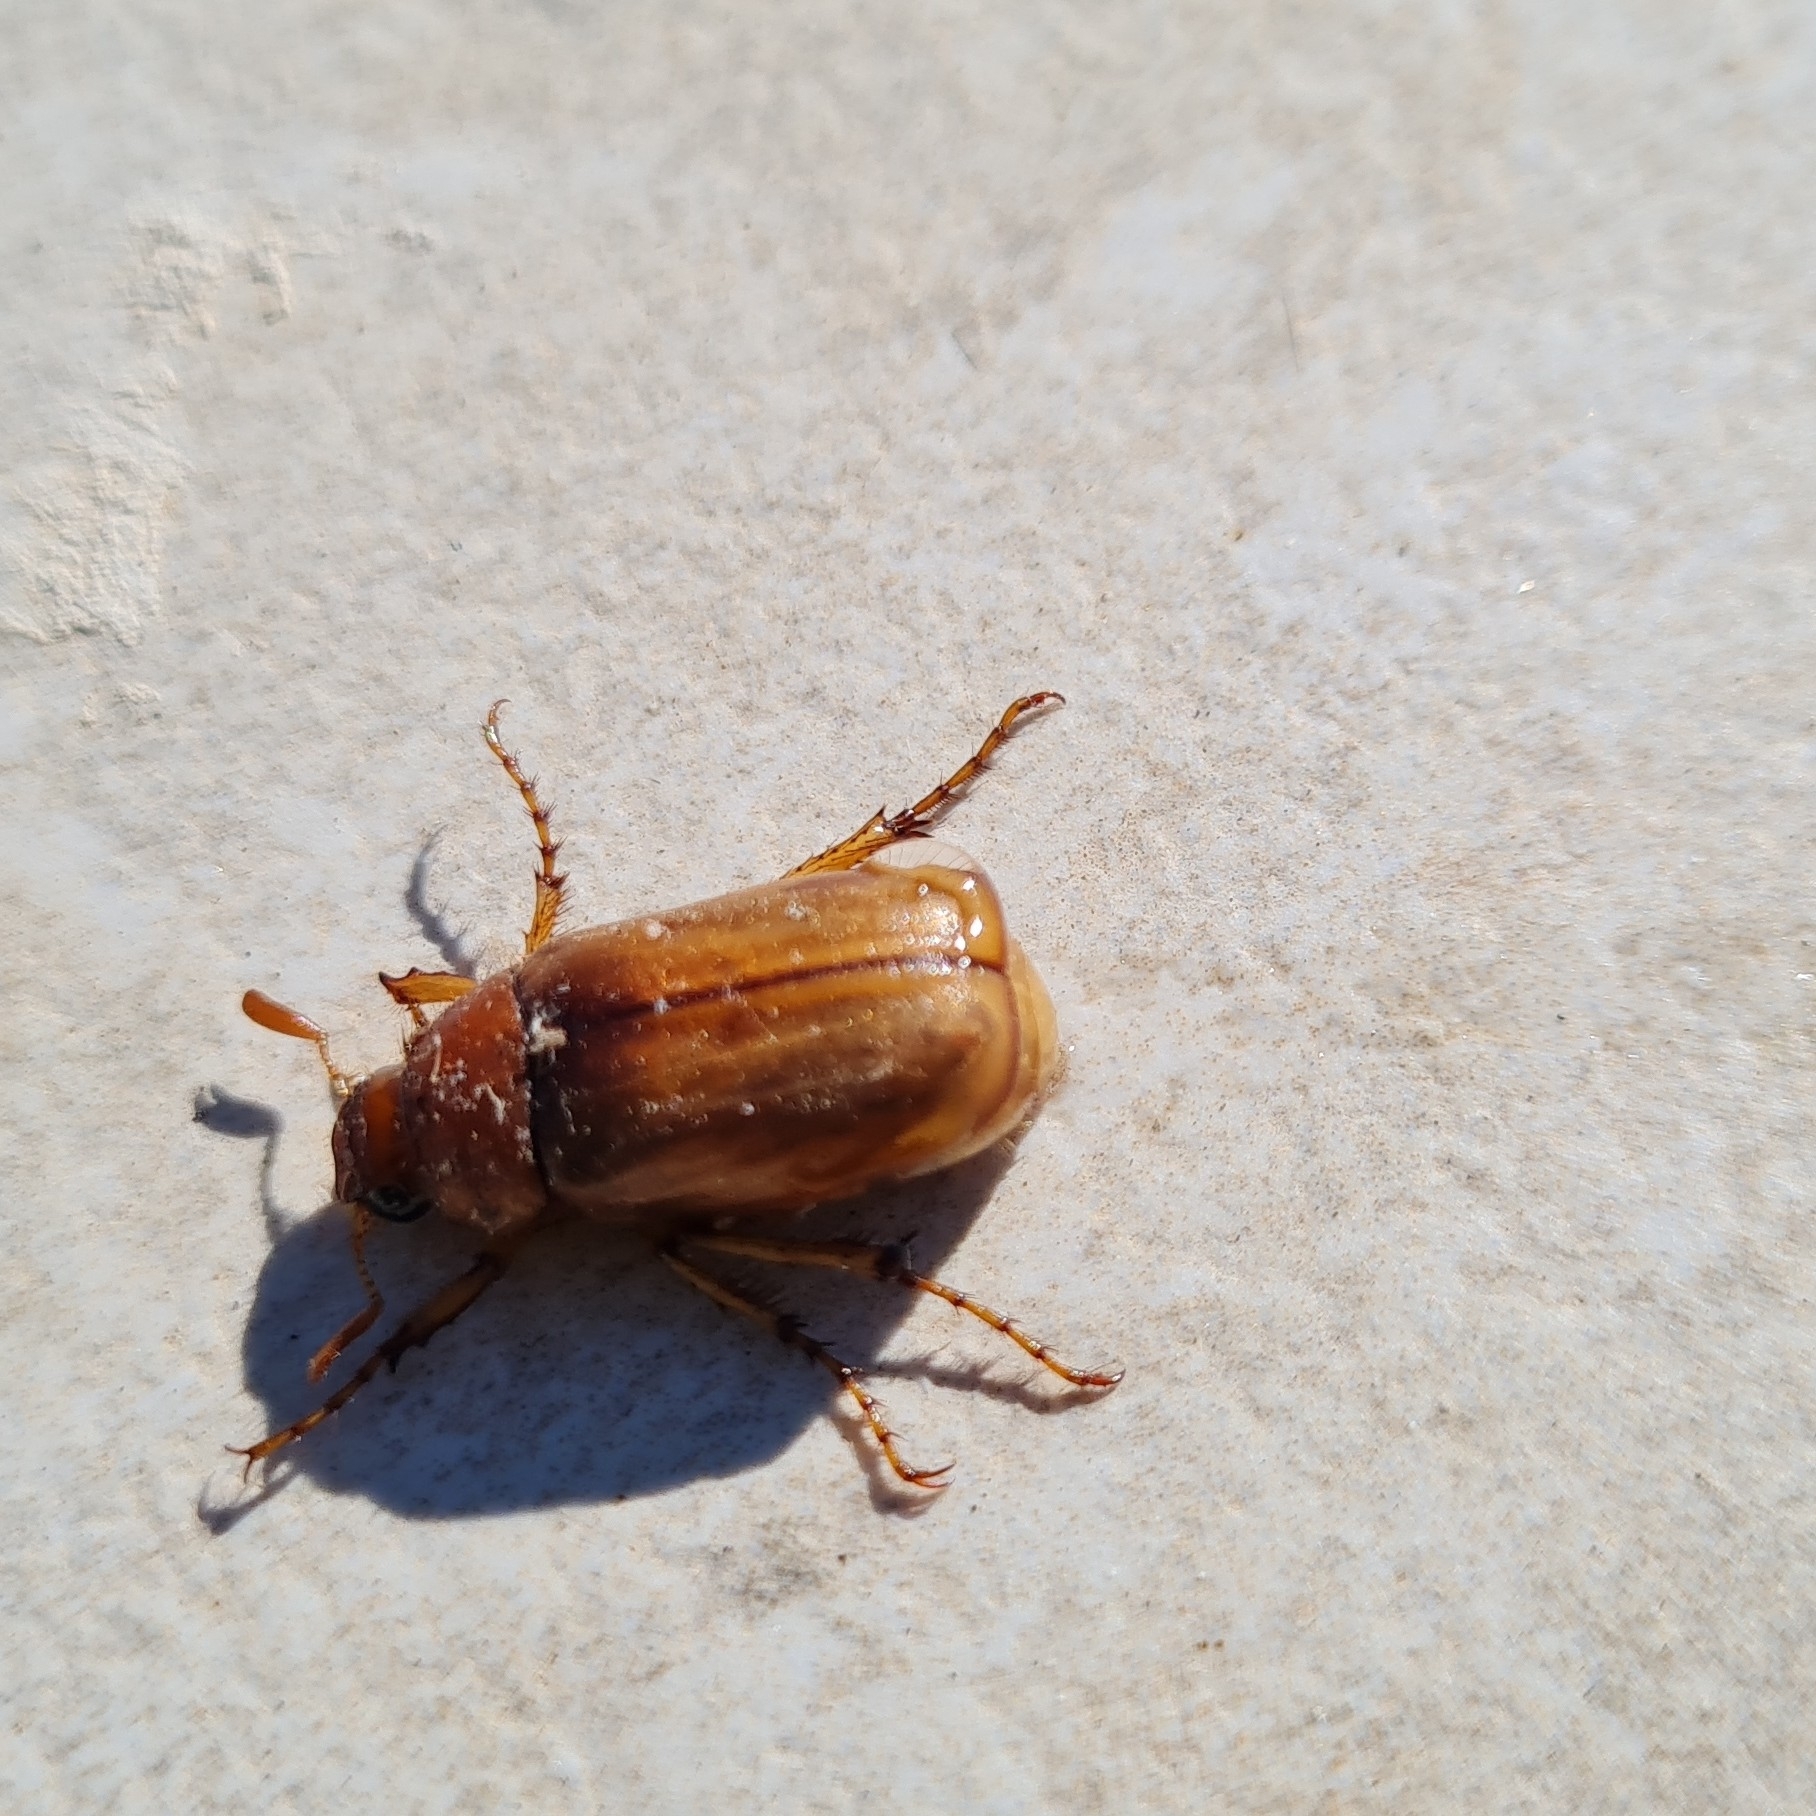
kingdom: Animalia
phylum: Arthropoda
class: Insecta
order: Coleoptera
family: Scarabaeidae
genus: Amphimallon
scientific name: Amphimallon solstitiale
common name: Summer chafer
